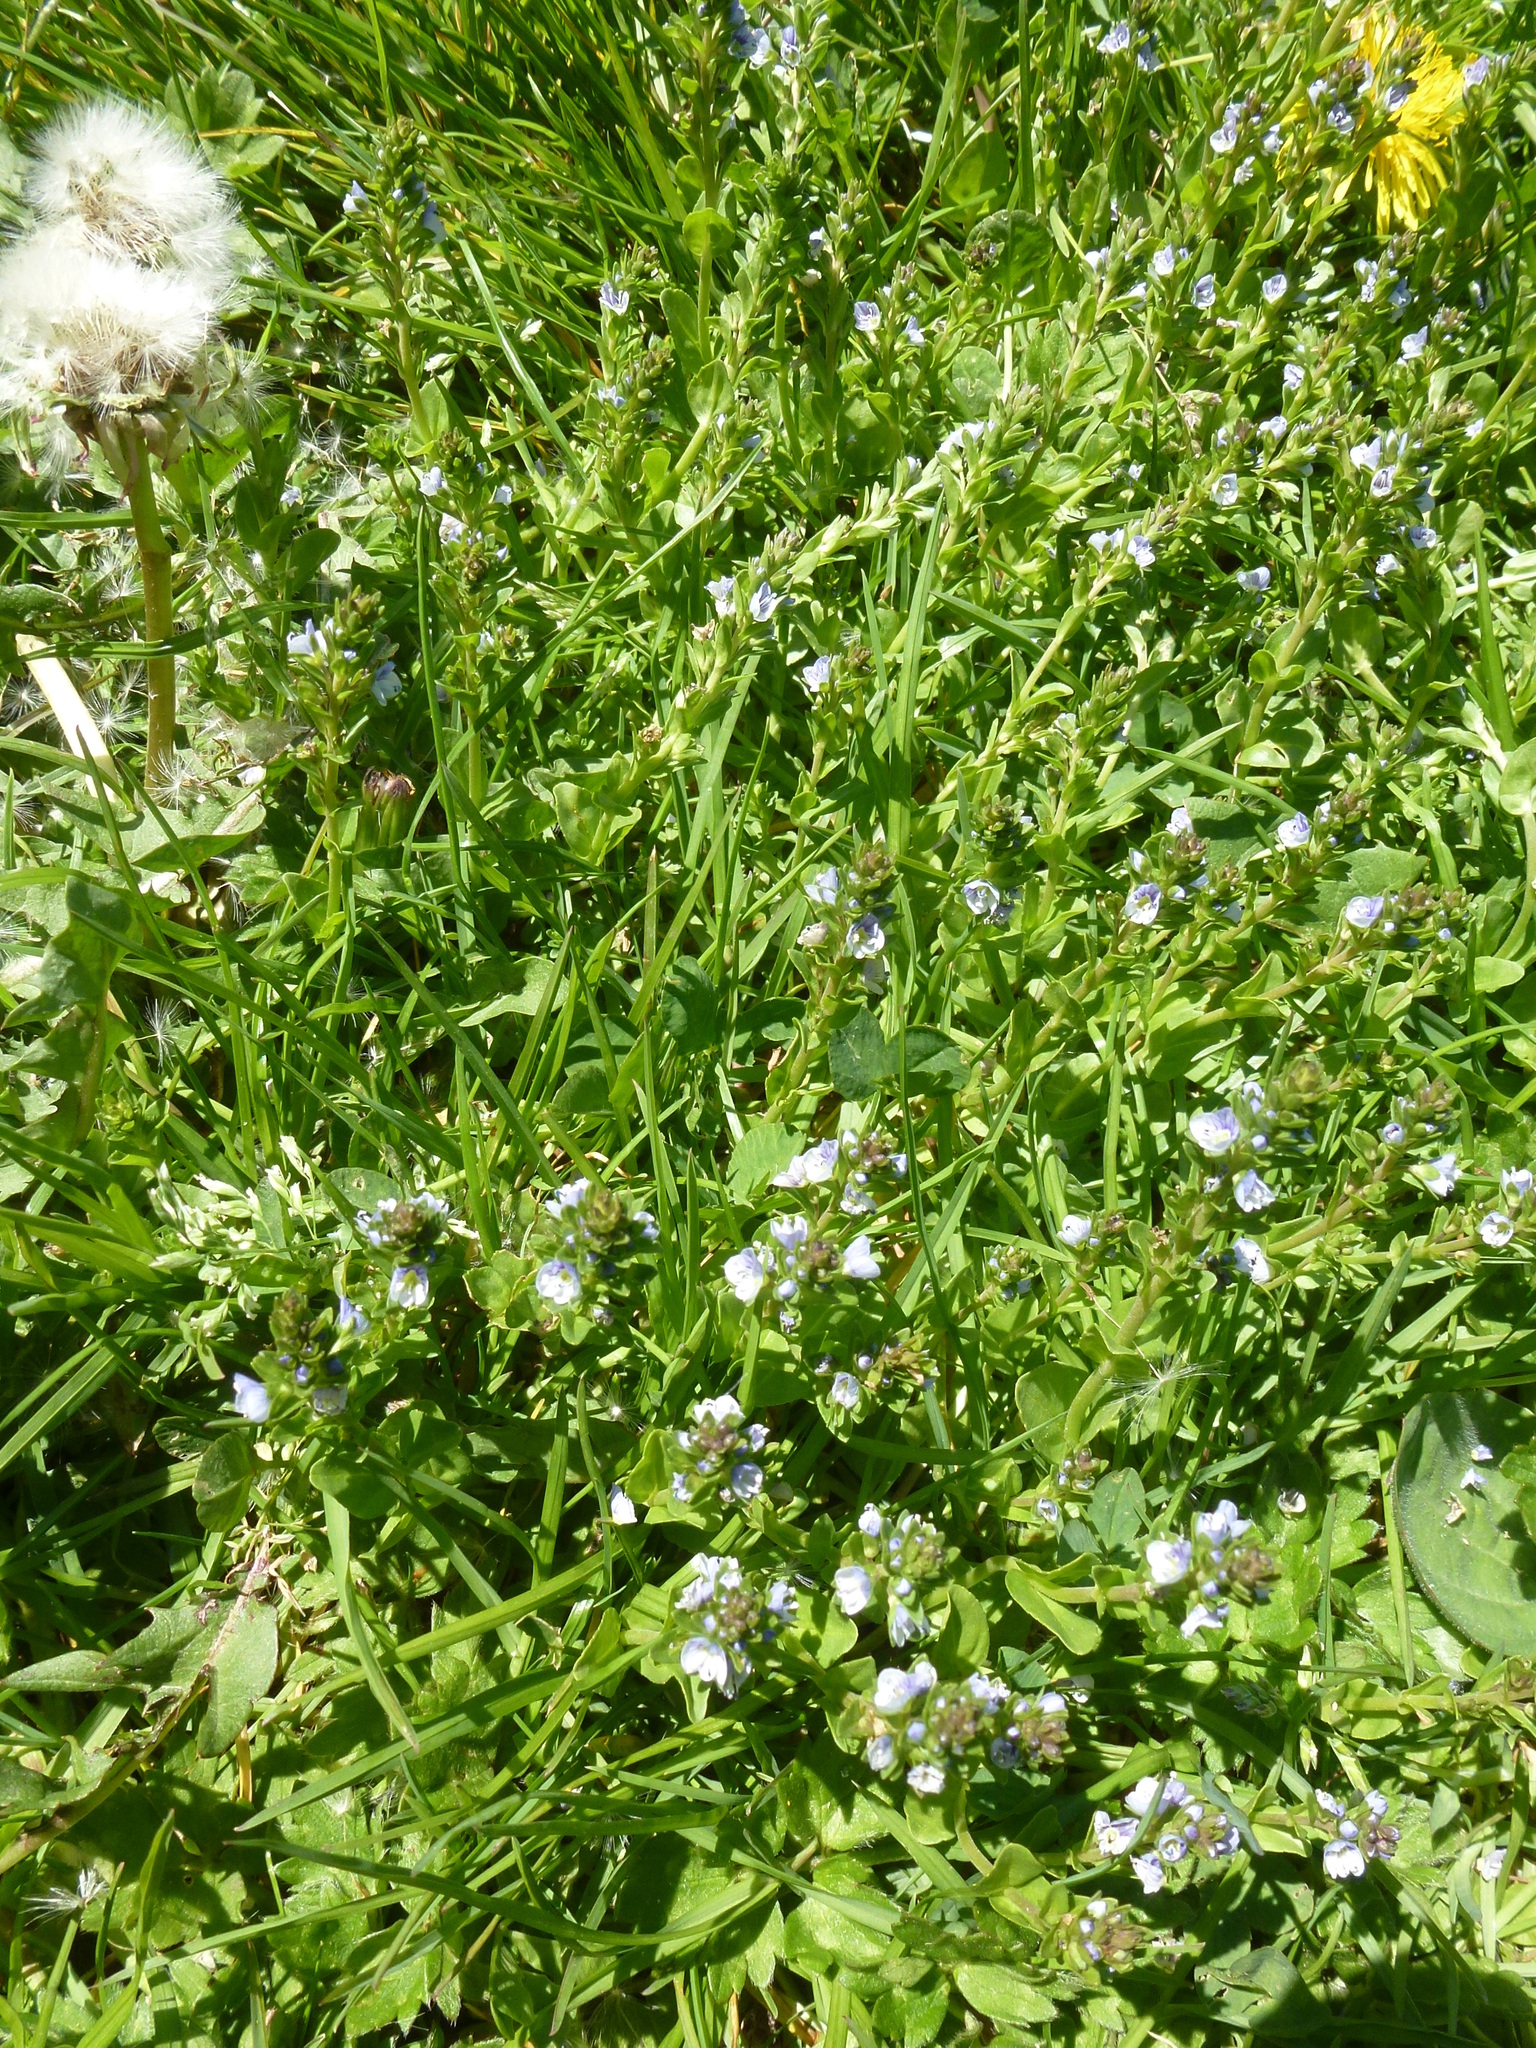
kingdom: Plantae
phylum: Tracheophyta
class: Magnoliopsida
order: Lamiales
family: Plantaginaceae
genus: Veronica
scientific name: Veronica serpyllifolia
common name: Thyme-leaved speedwell
